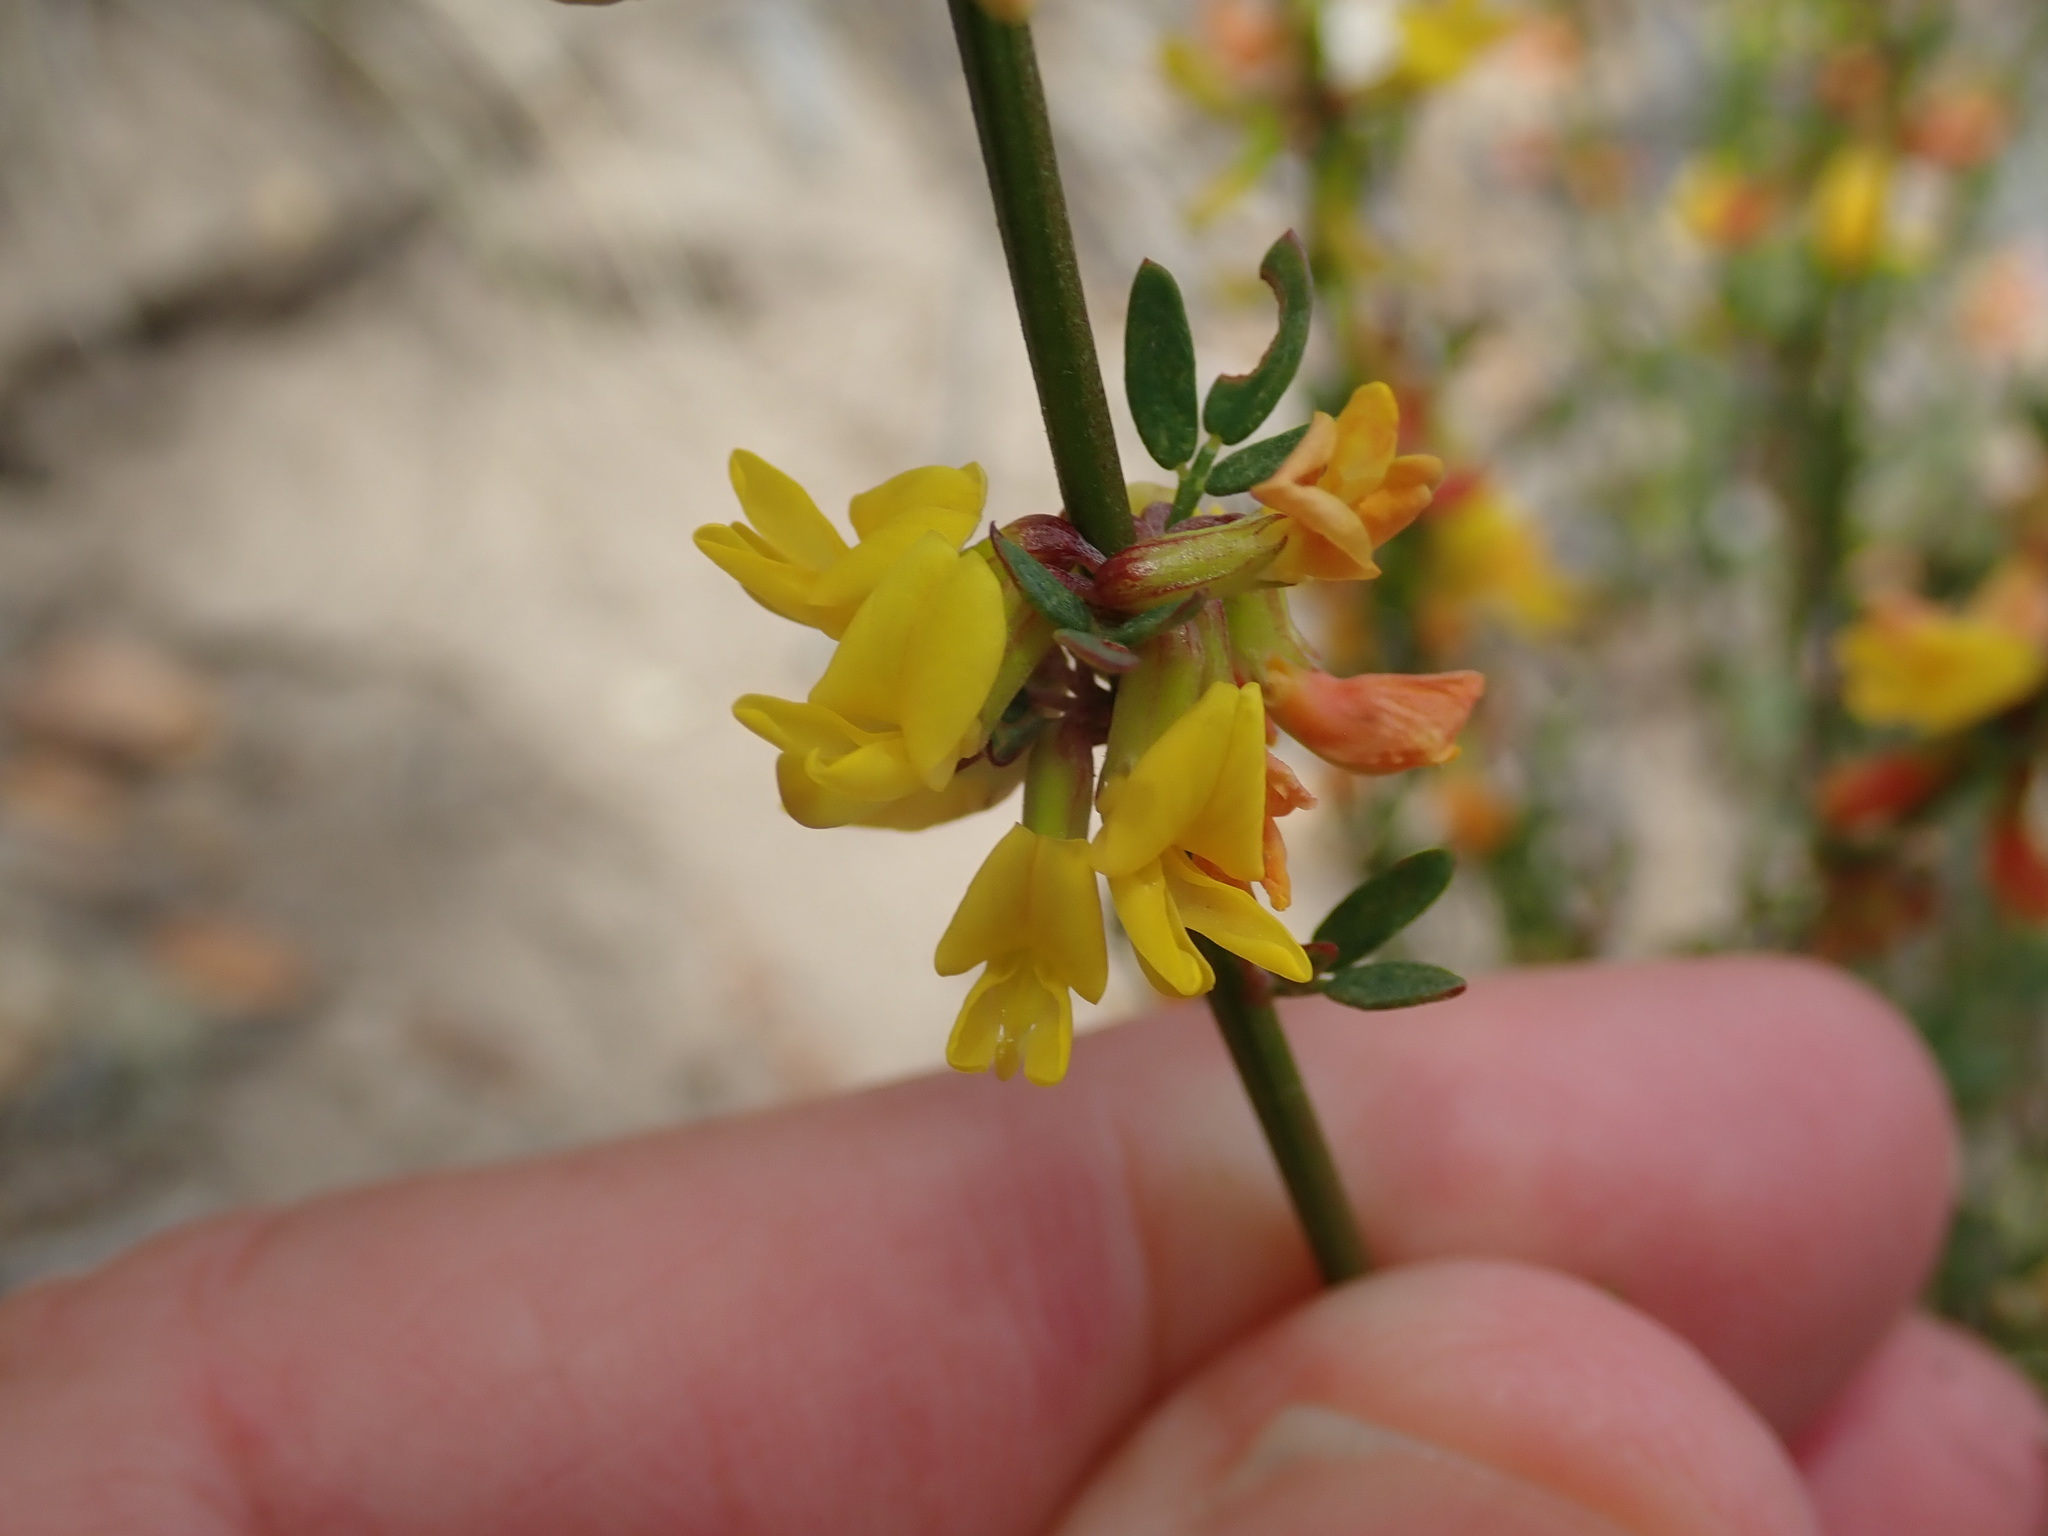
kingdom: Plantae
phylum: Tracheophyta
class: Magnoliopsida
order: Fabales
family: Fabaceae
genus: Acmispon
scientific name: Acmispon glaber
